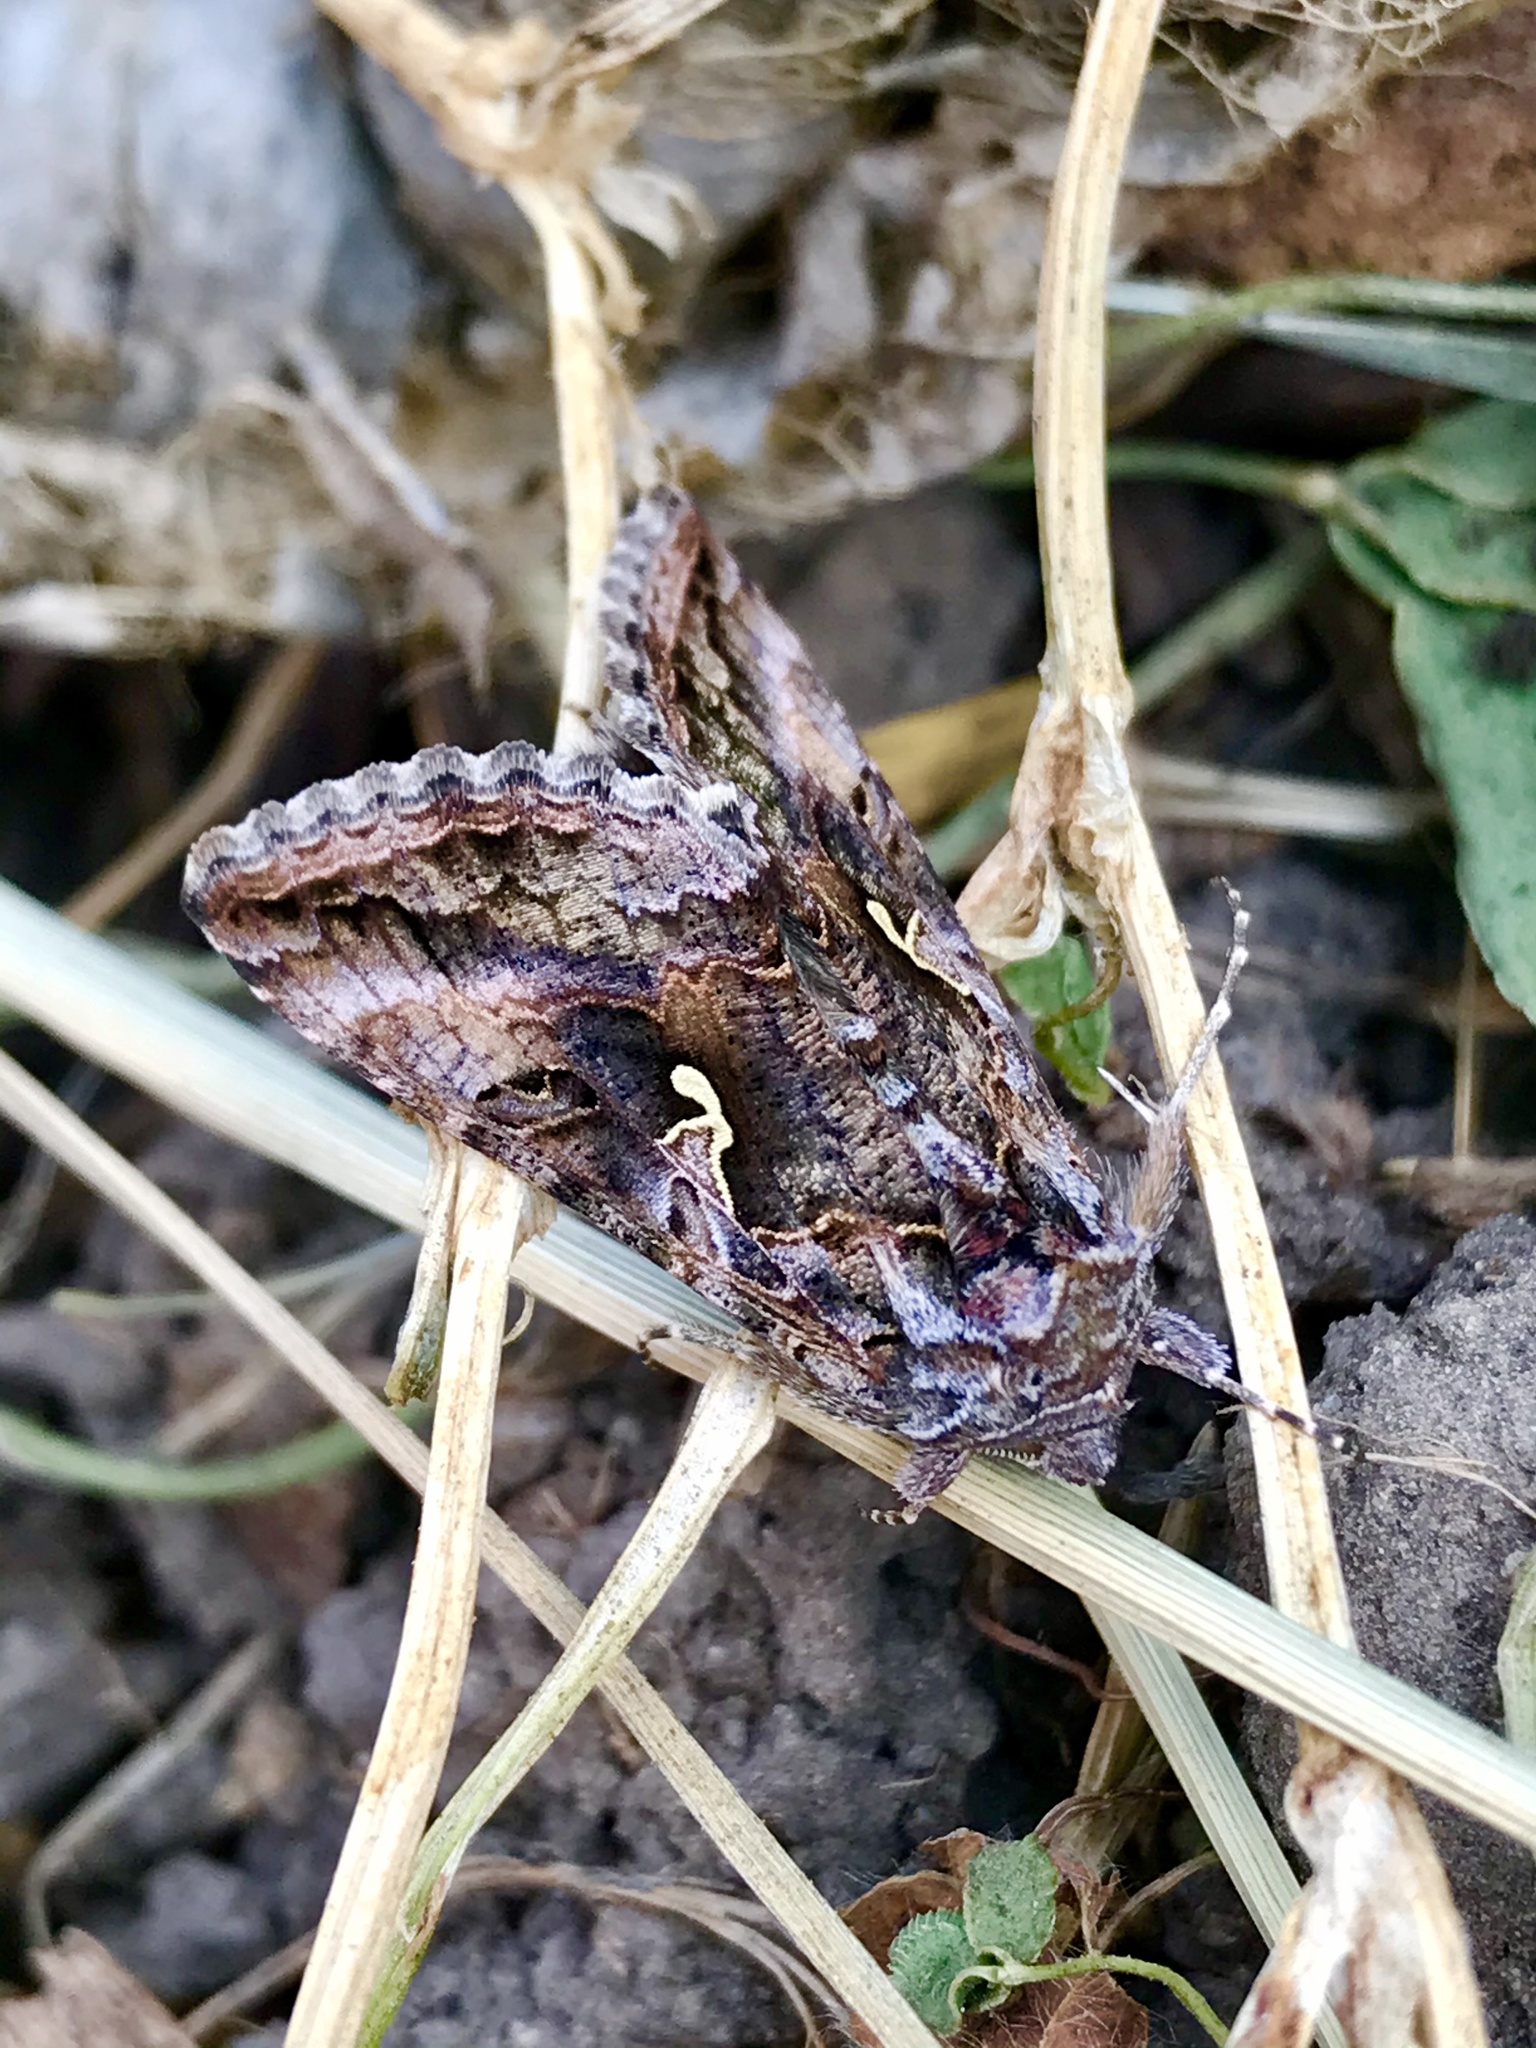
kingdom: Animalia
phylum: Arthropoda
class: Insecta
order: Lepidoptera
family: Noctuidae
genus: Autographa
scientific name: Autographa californica
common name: Alfalfa looper
